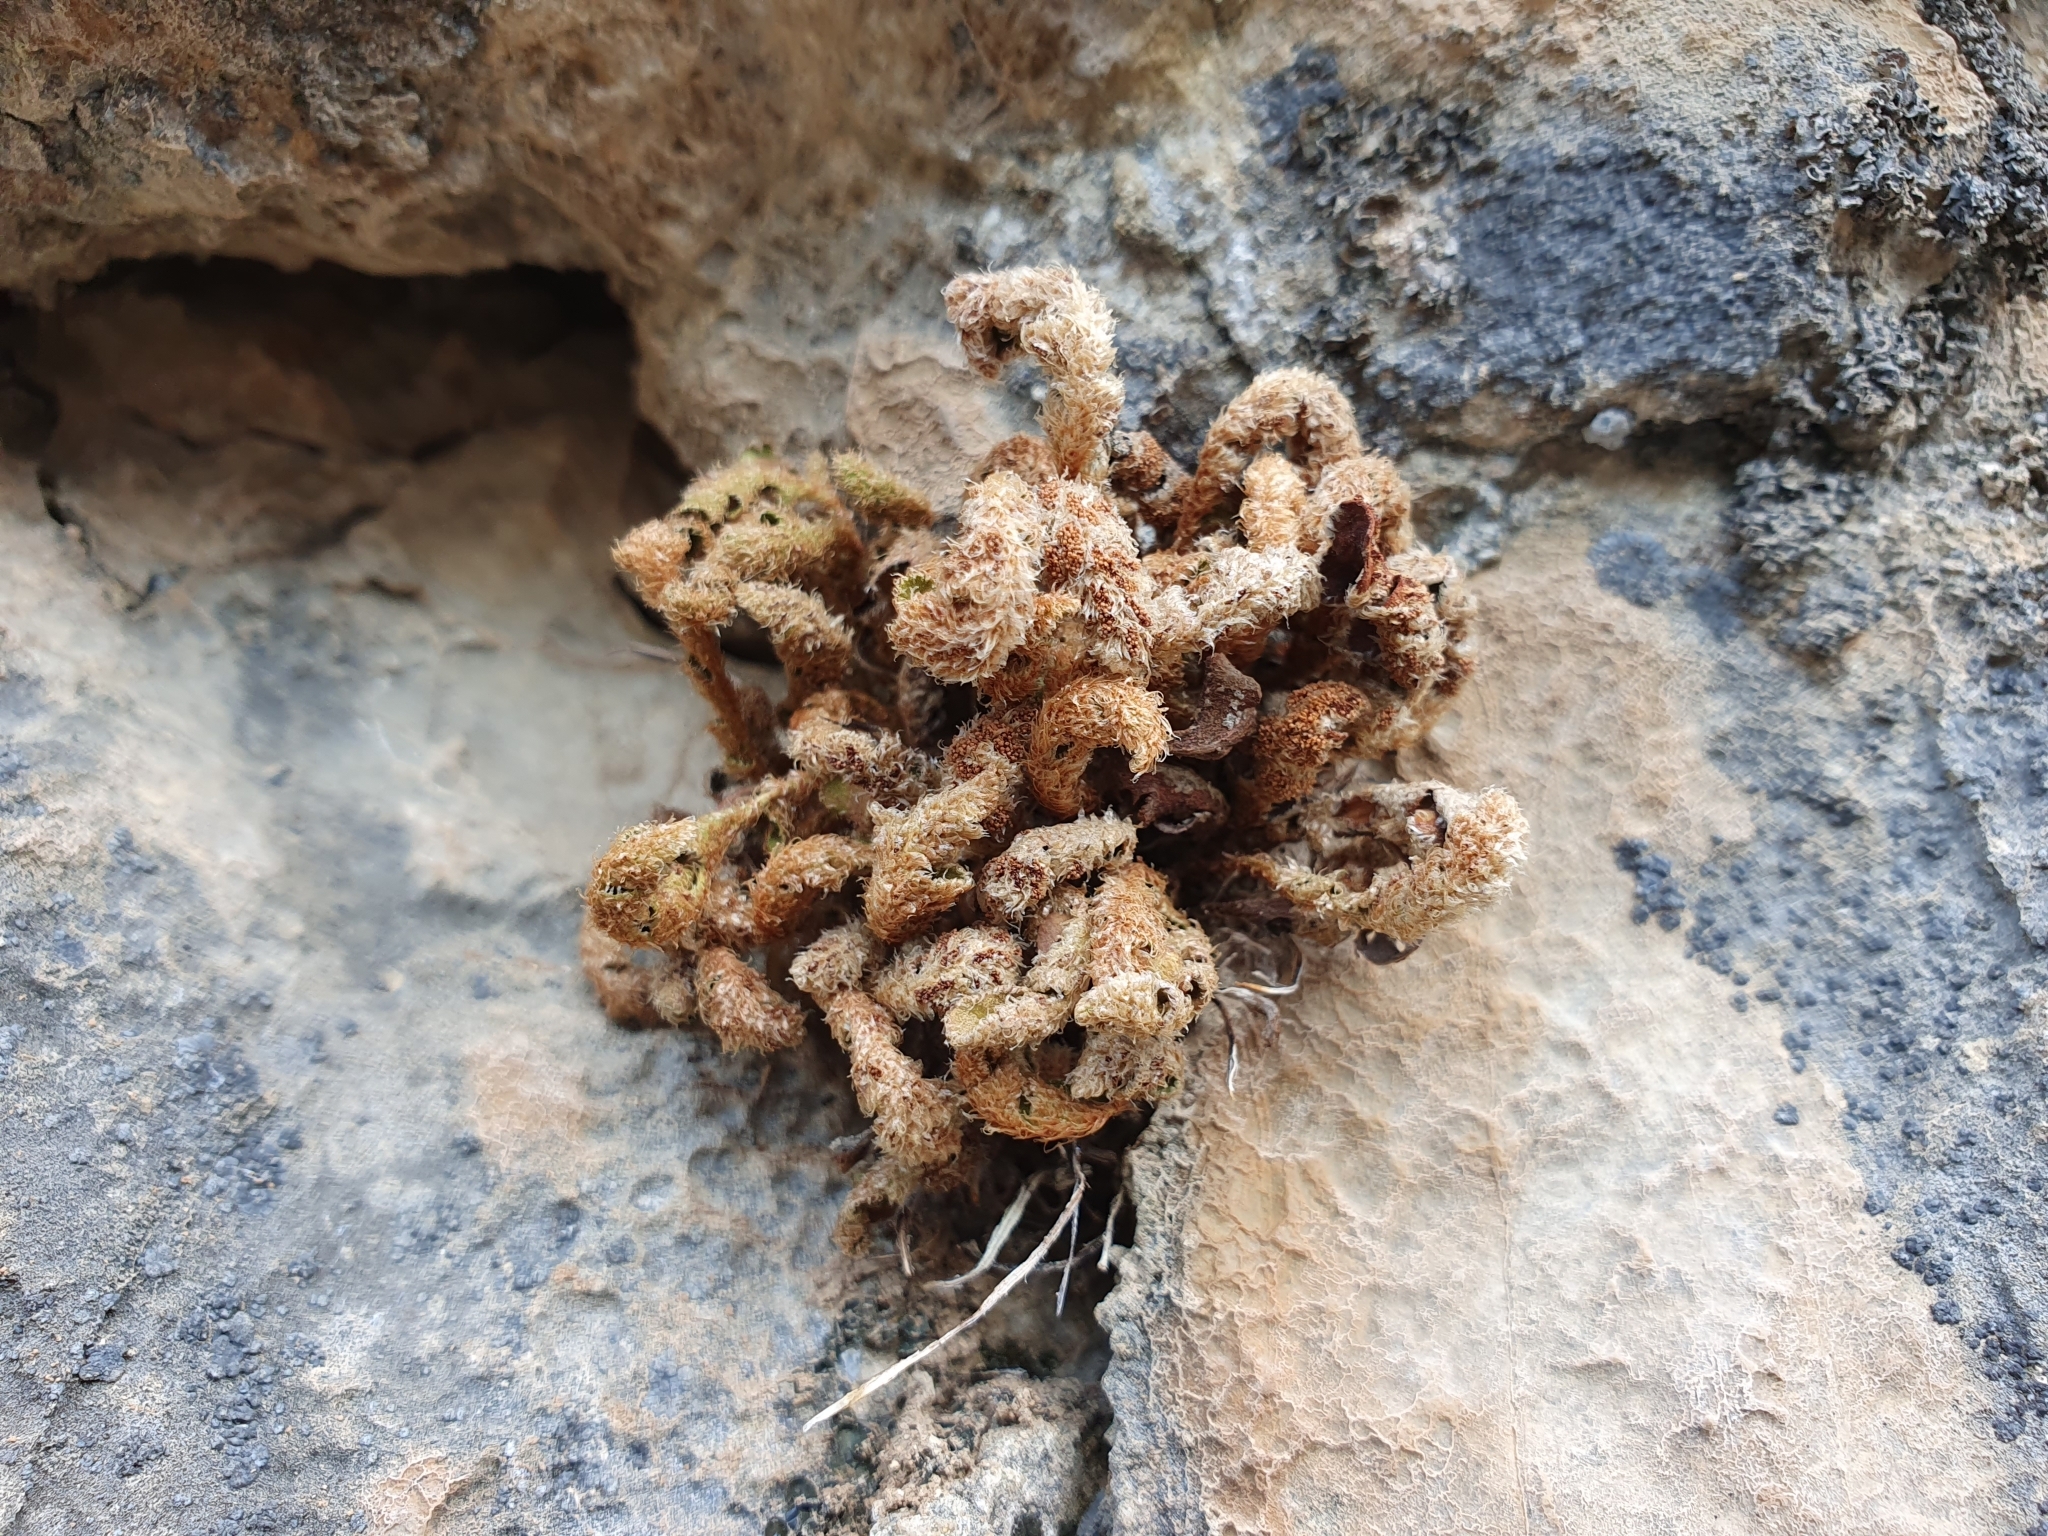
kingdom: Plantae
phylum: Tracheophyta
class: Polypodiopsida
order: Polypodiales
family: Aspleniaceae
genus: Asplenium
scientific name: Asplenium ceterach
